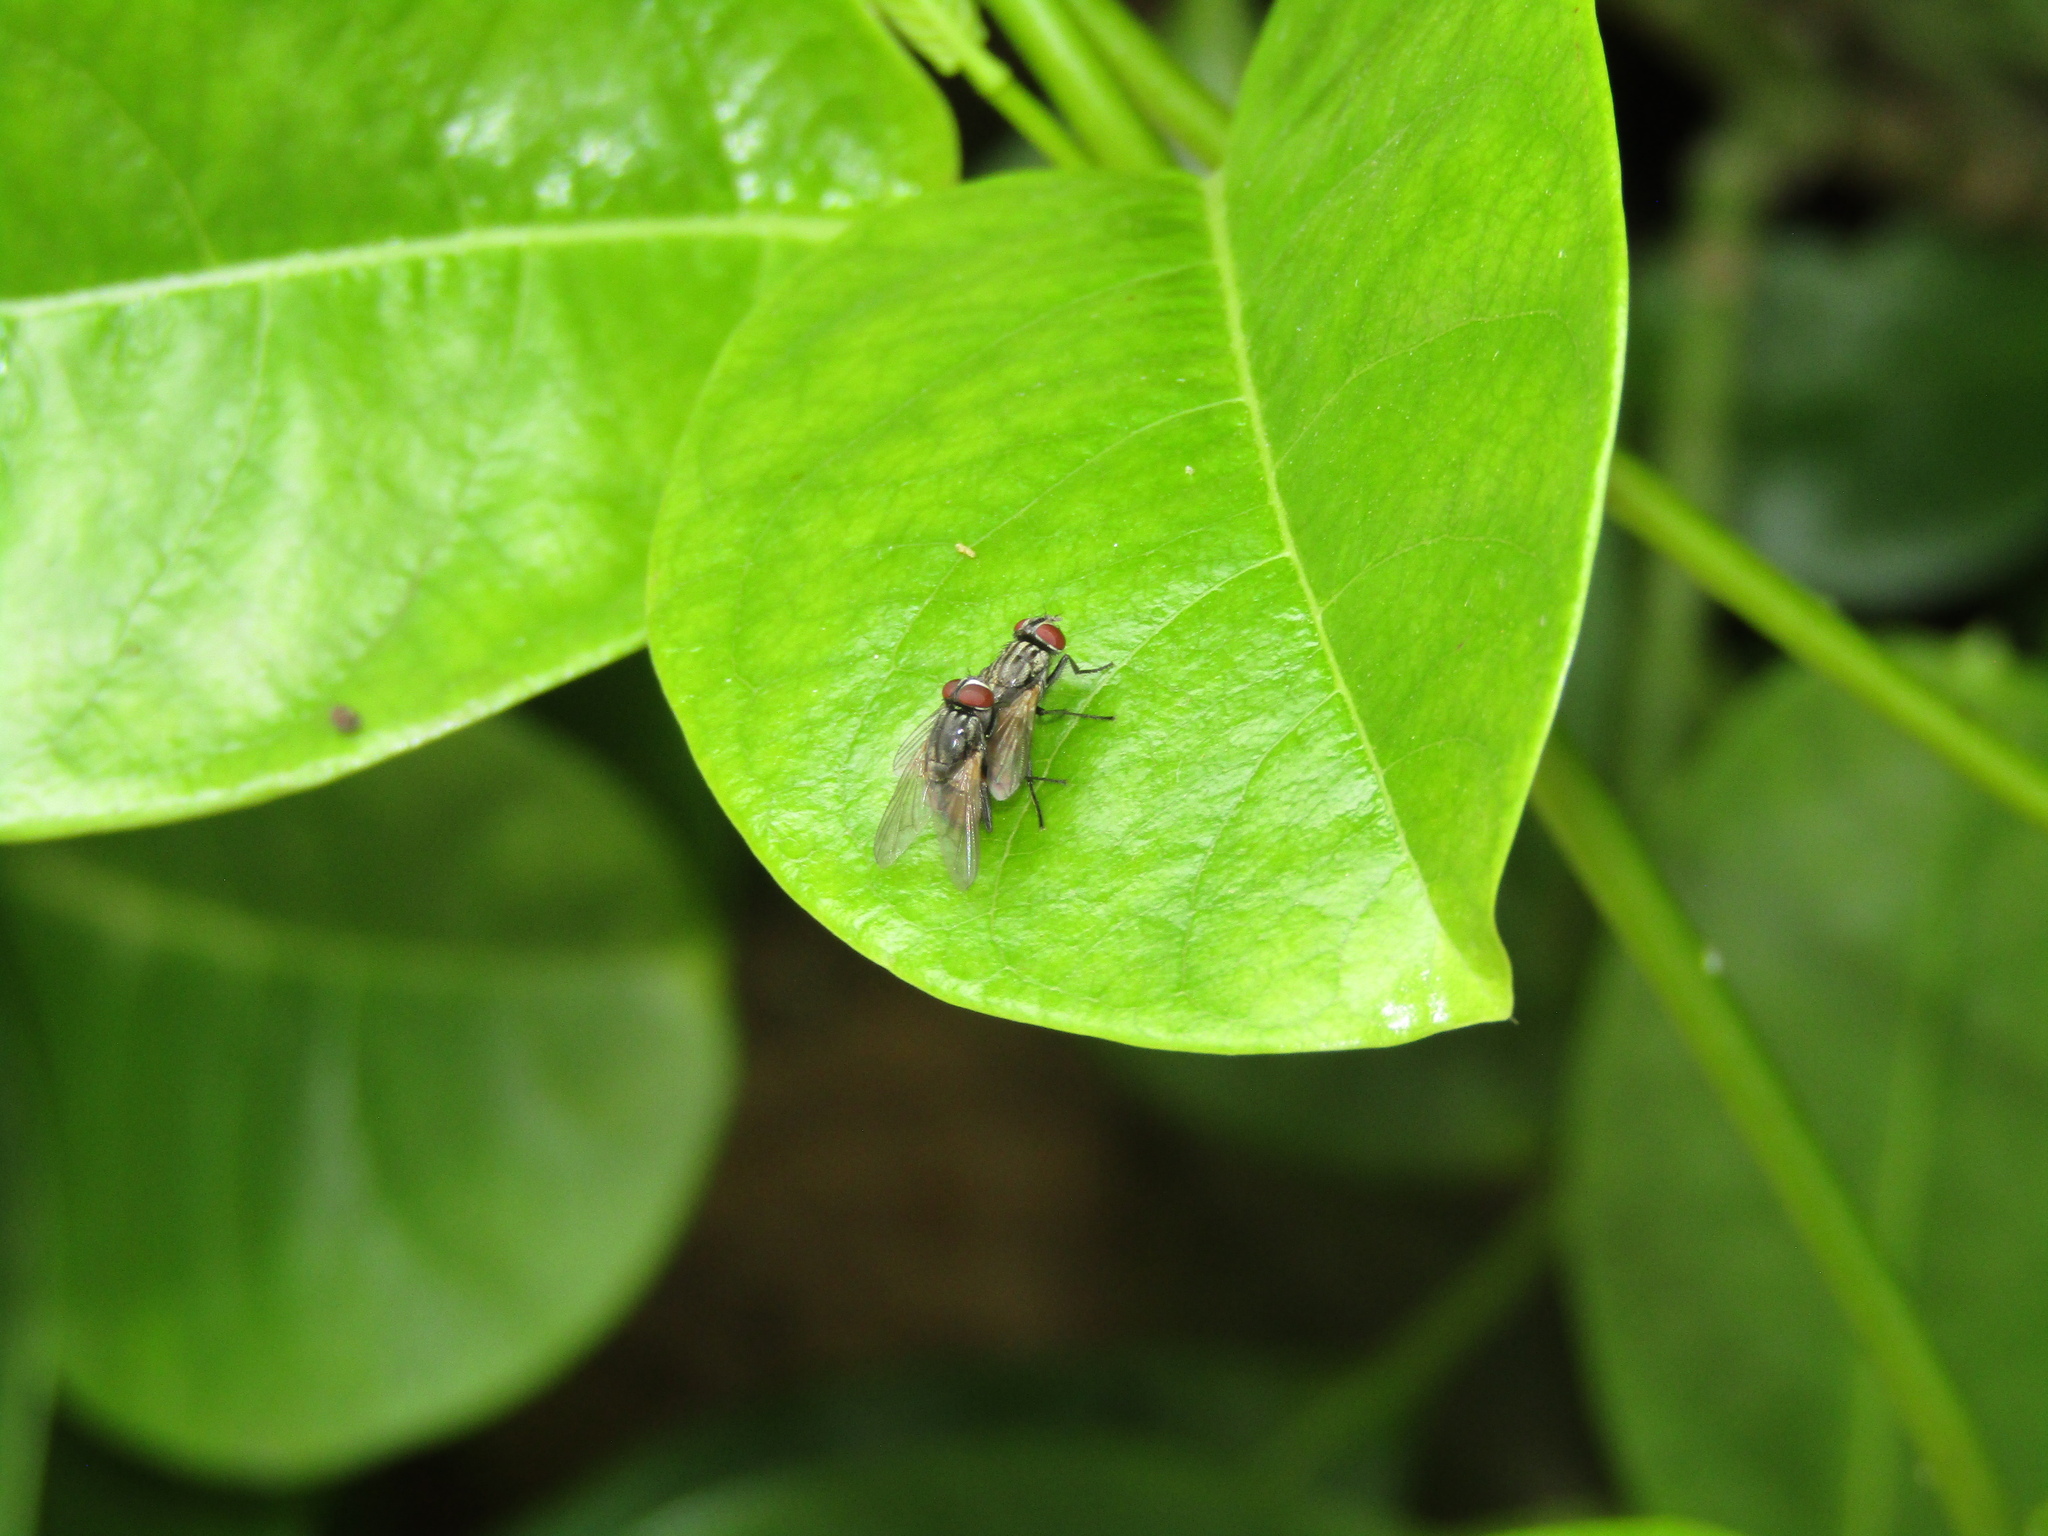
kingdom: Animalia
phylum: Arthropoda
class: Insecta
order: Diptera
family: Muscidae
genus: Musca
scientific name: Musca domestica
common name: House fly
